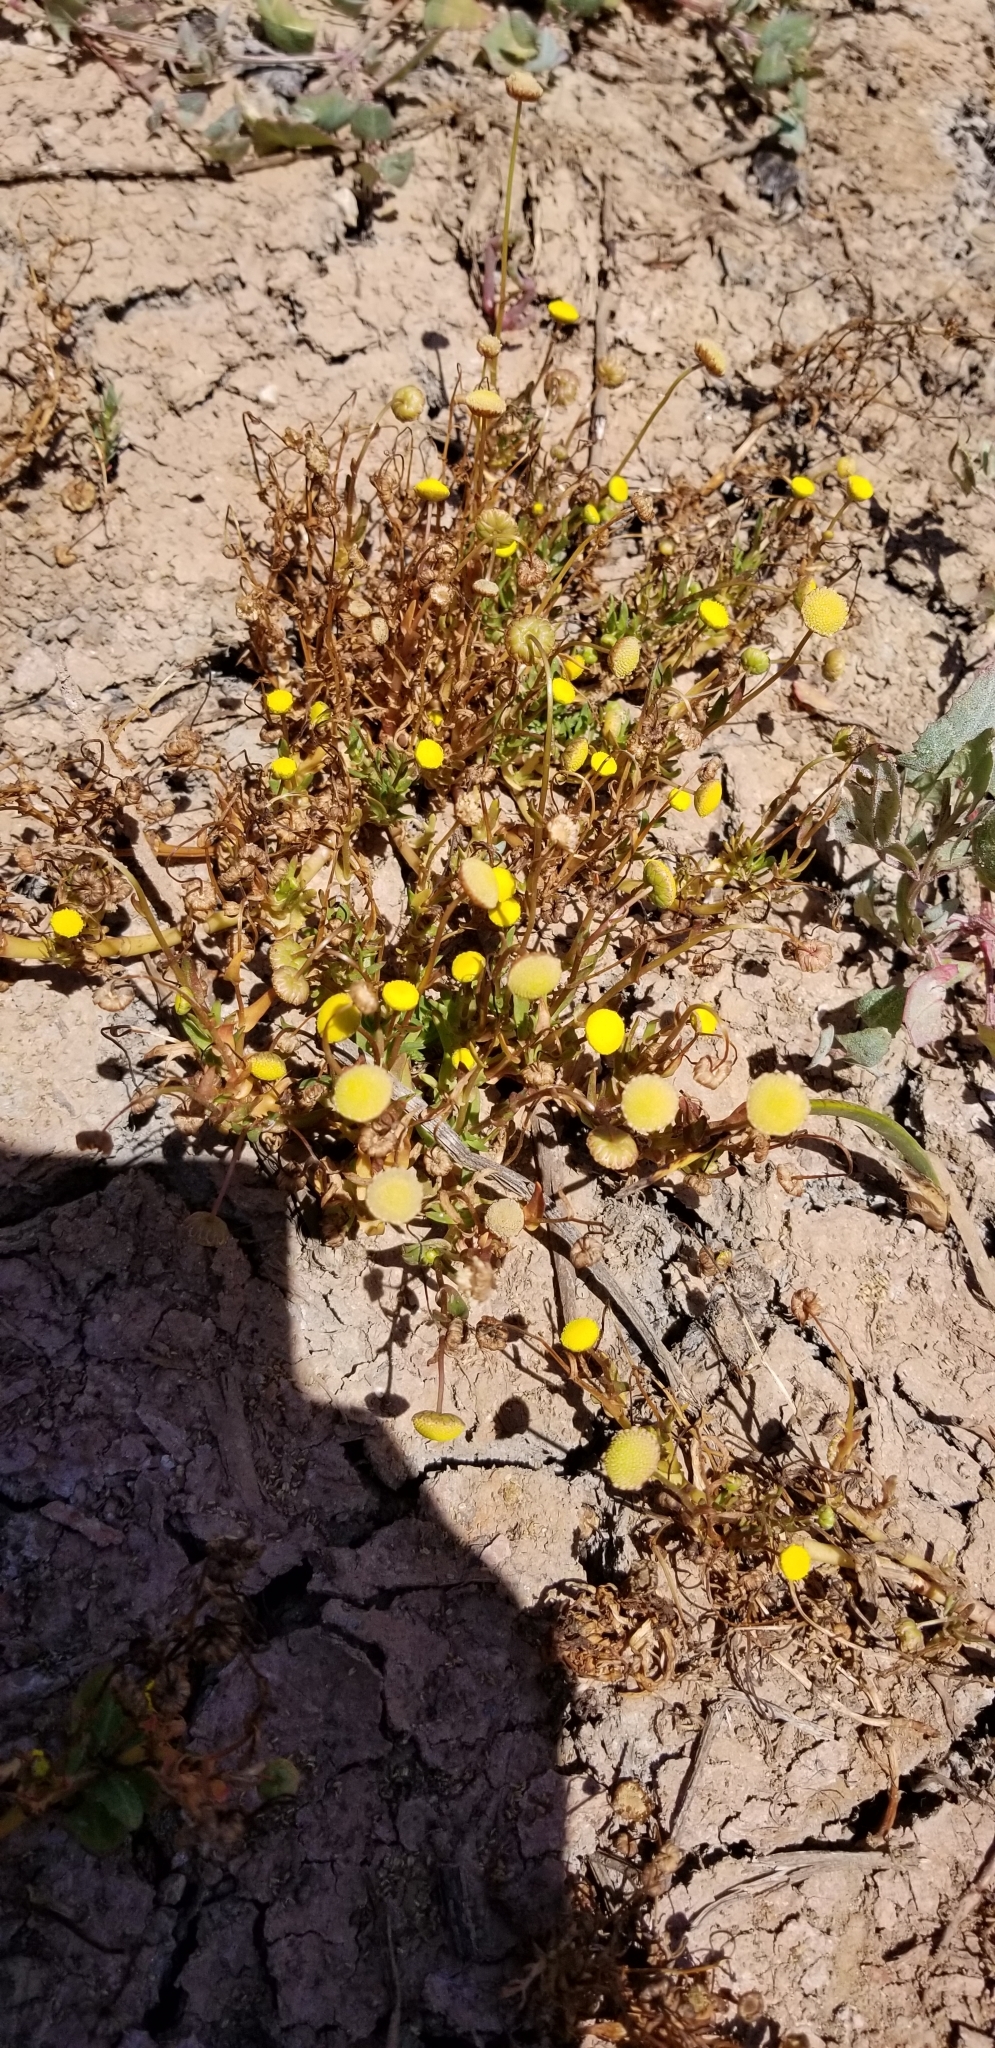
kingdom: Plantae
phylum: Tracheophyta
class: Magnoliopsida
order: Asterales
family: Asteraceae
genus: Cotula
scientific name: Cotula coronopifolia
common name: Buttonweed
